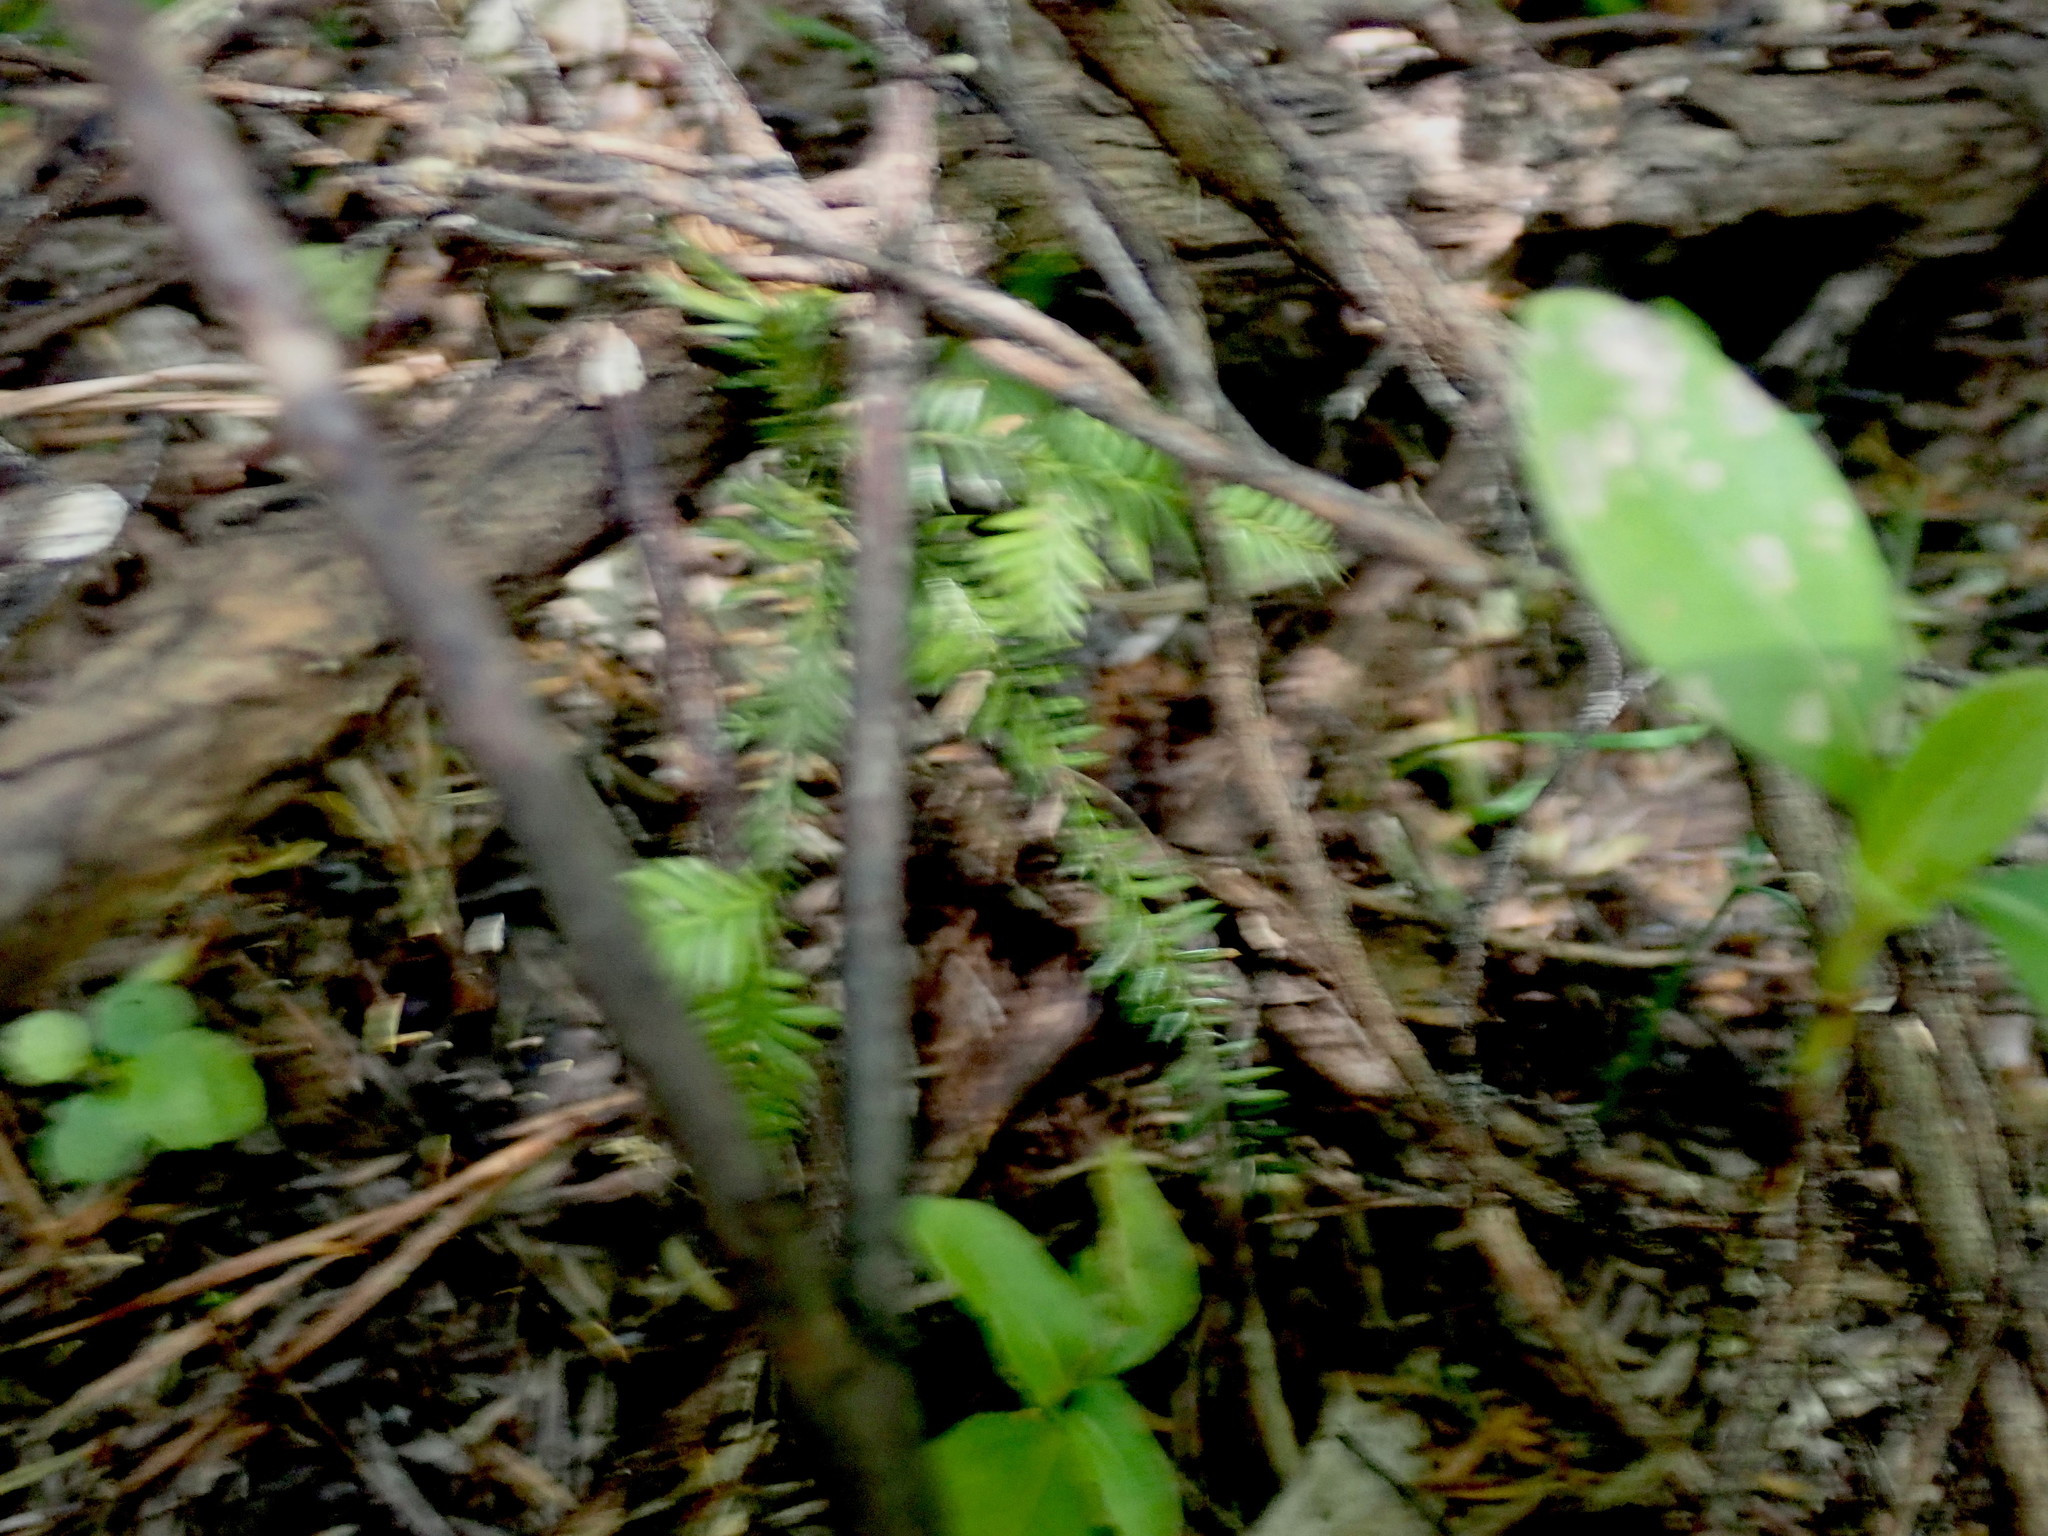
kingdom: Plantae
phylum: Tracheophyta
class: Pinopsida
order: Pinales
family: Podocarpaceae
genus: Dacrycarpus
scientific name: Dacrycarpus dacrydioides
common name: White pine
